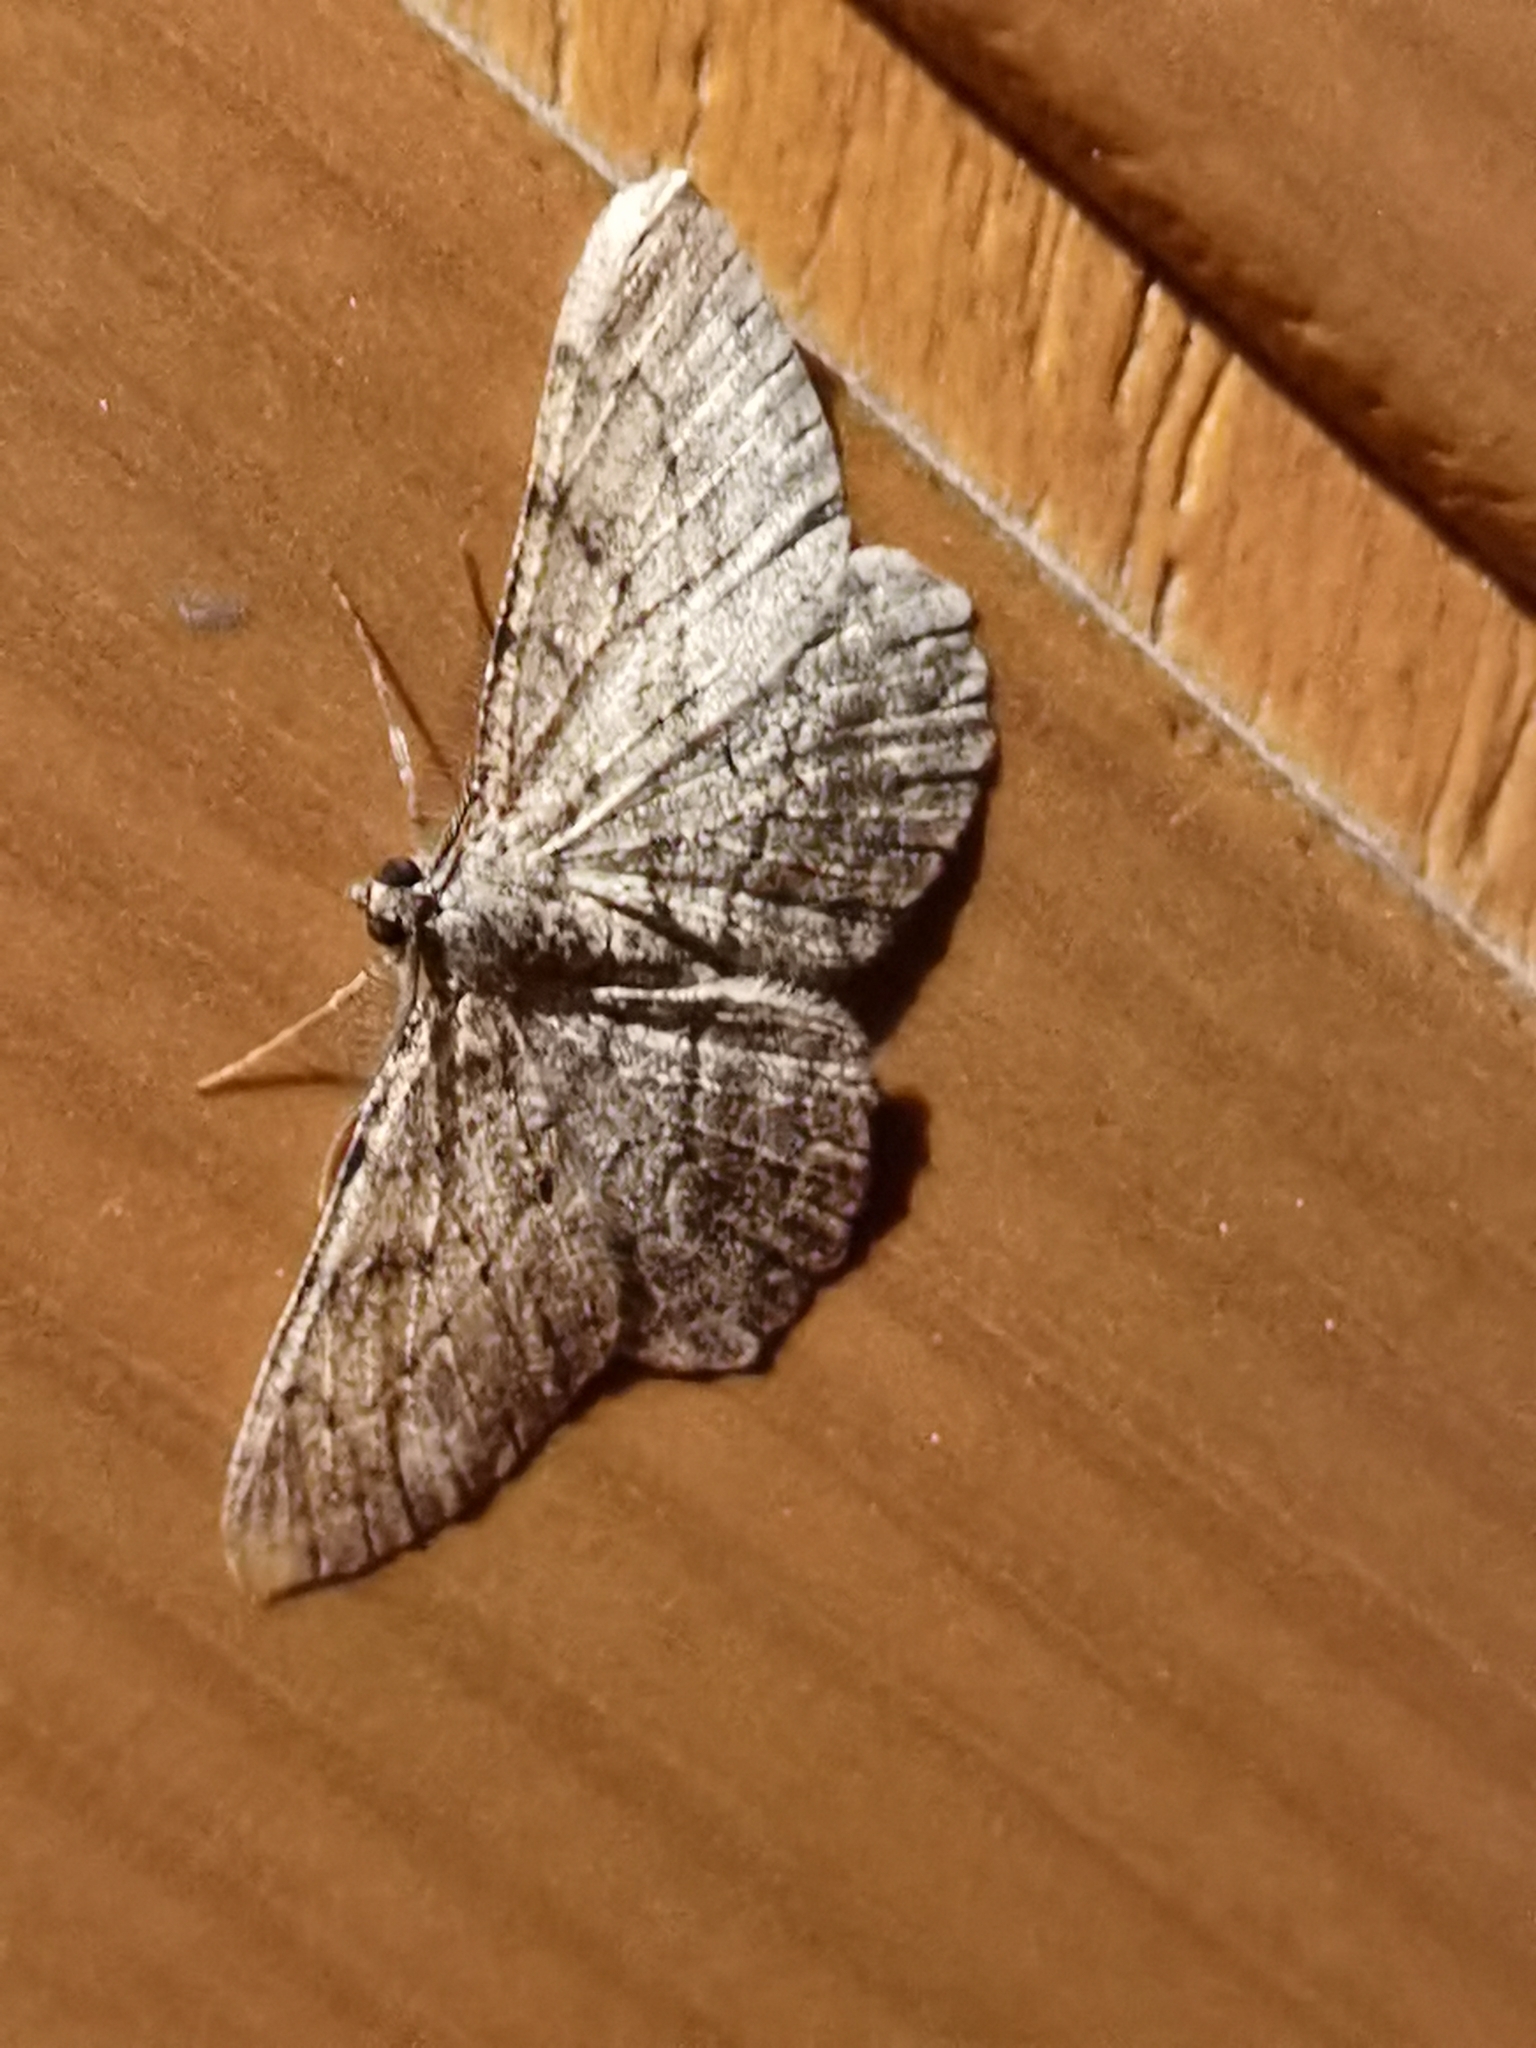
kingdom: Animalia
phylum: Arthropoda
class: Insecta
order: Lepidoptera
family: Geometridae
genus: Peribatodes
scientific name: Peribatodes rhomboidaria
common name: Willow beauty
